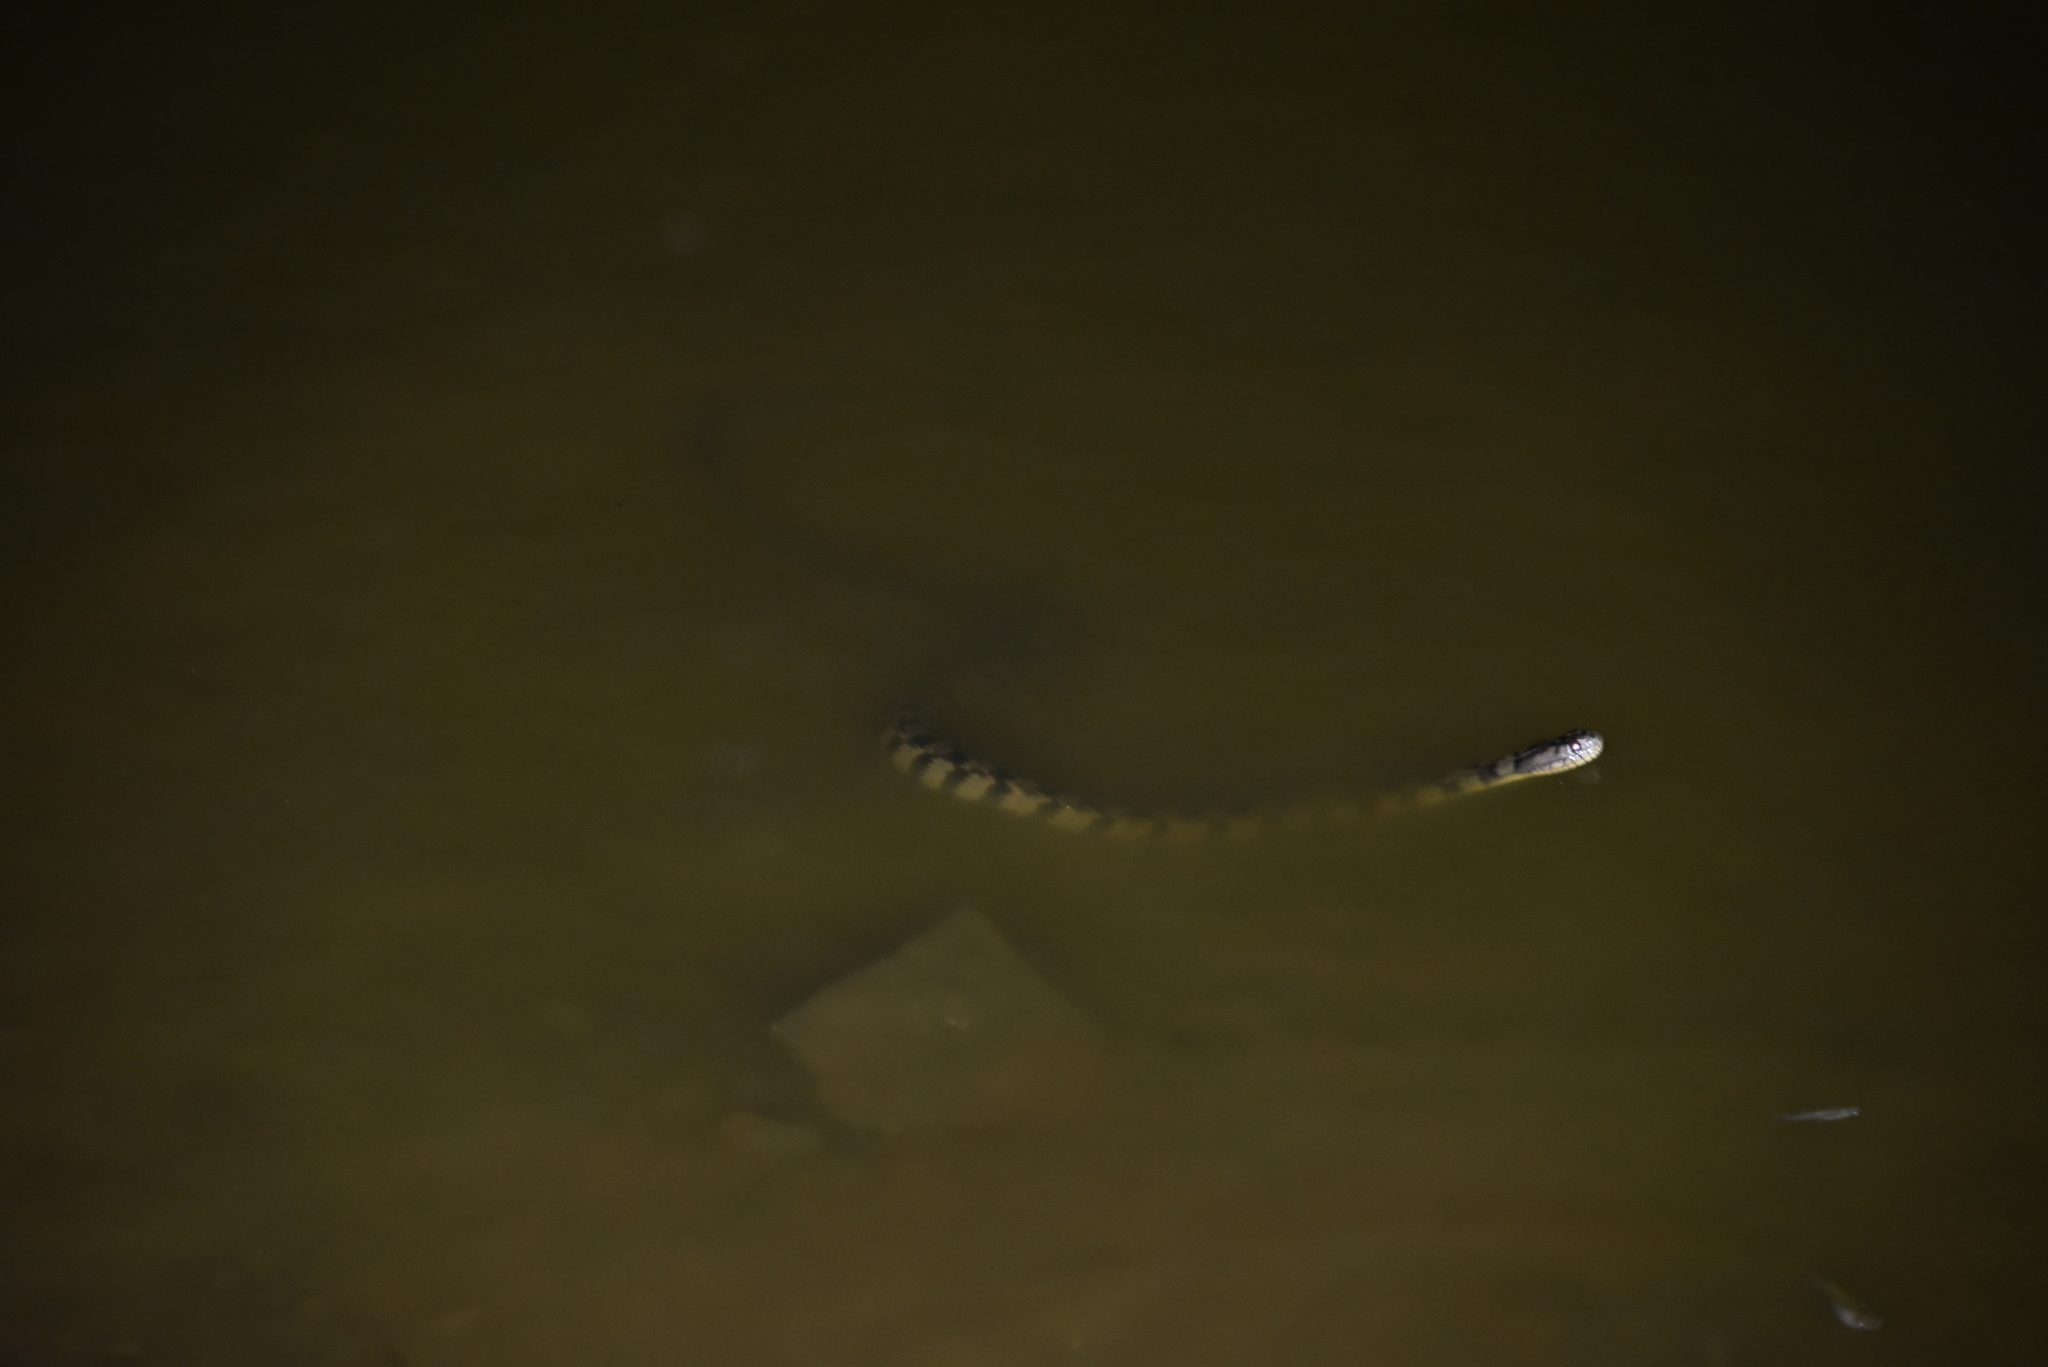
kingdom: Animalia
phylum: Chordata
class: Squamata
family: Colubridae
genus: Nerodia
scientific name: Nerodia rhombifer
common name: Diamondback water snake
